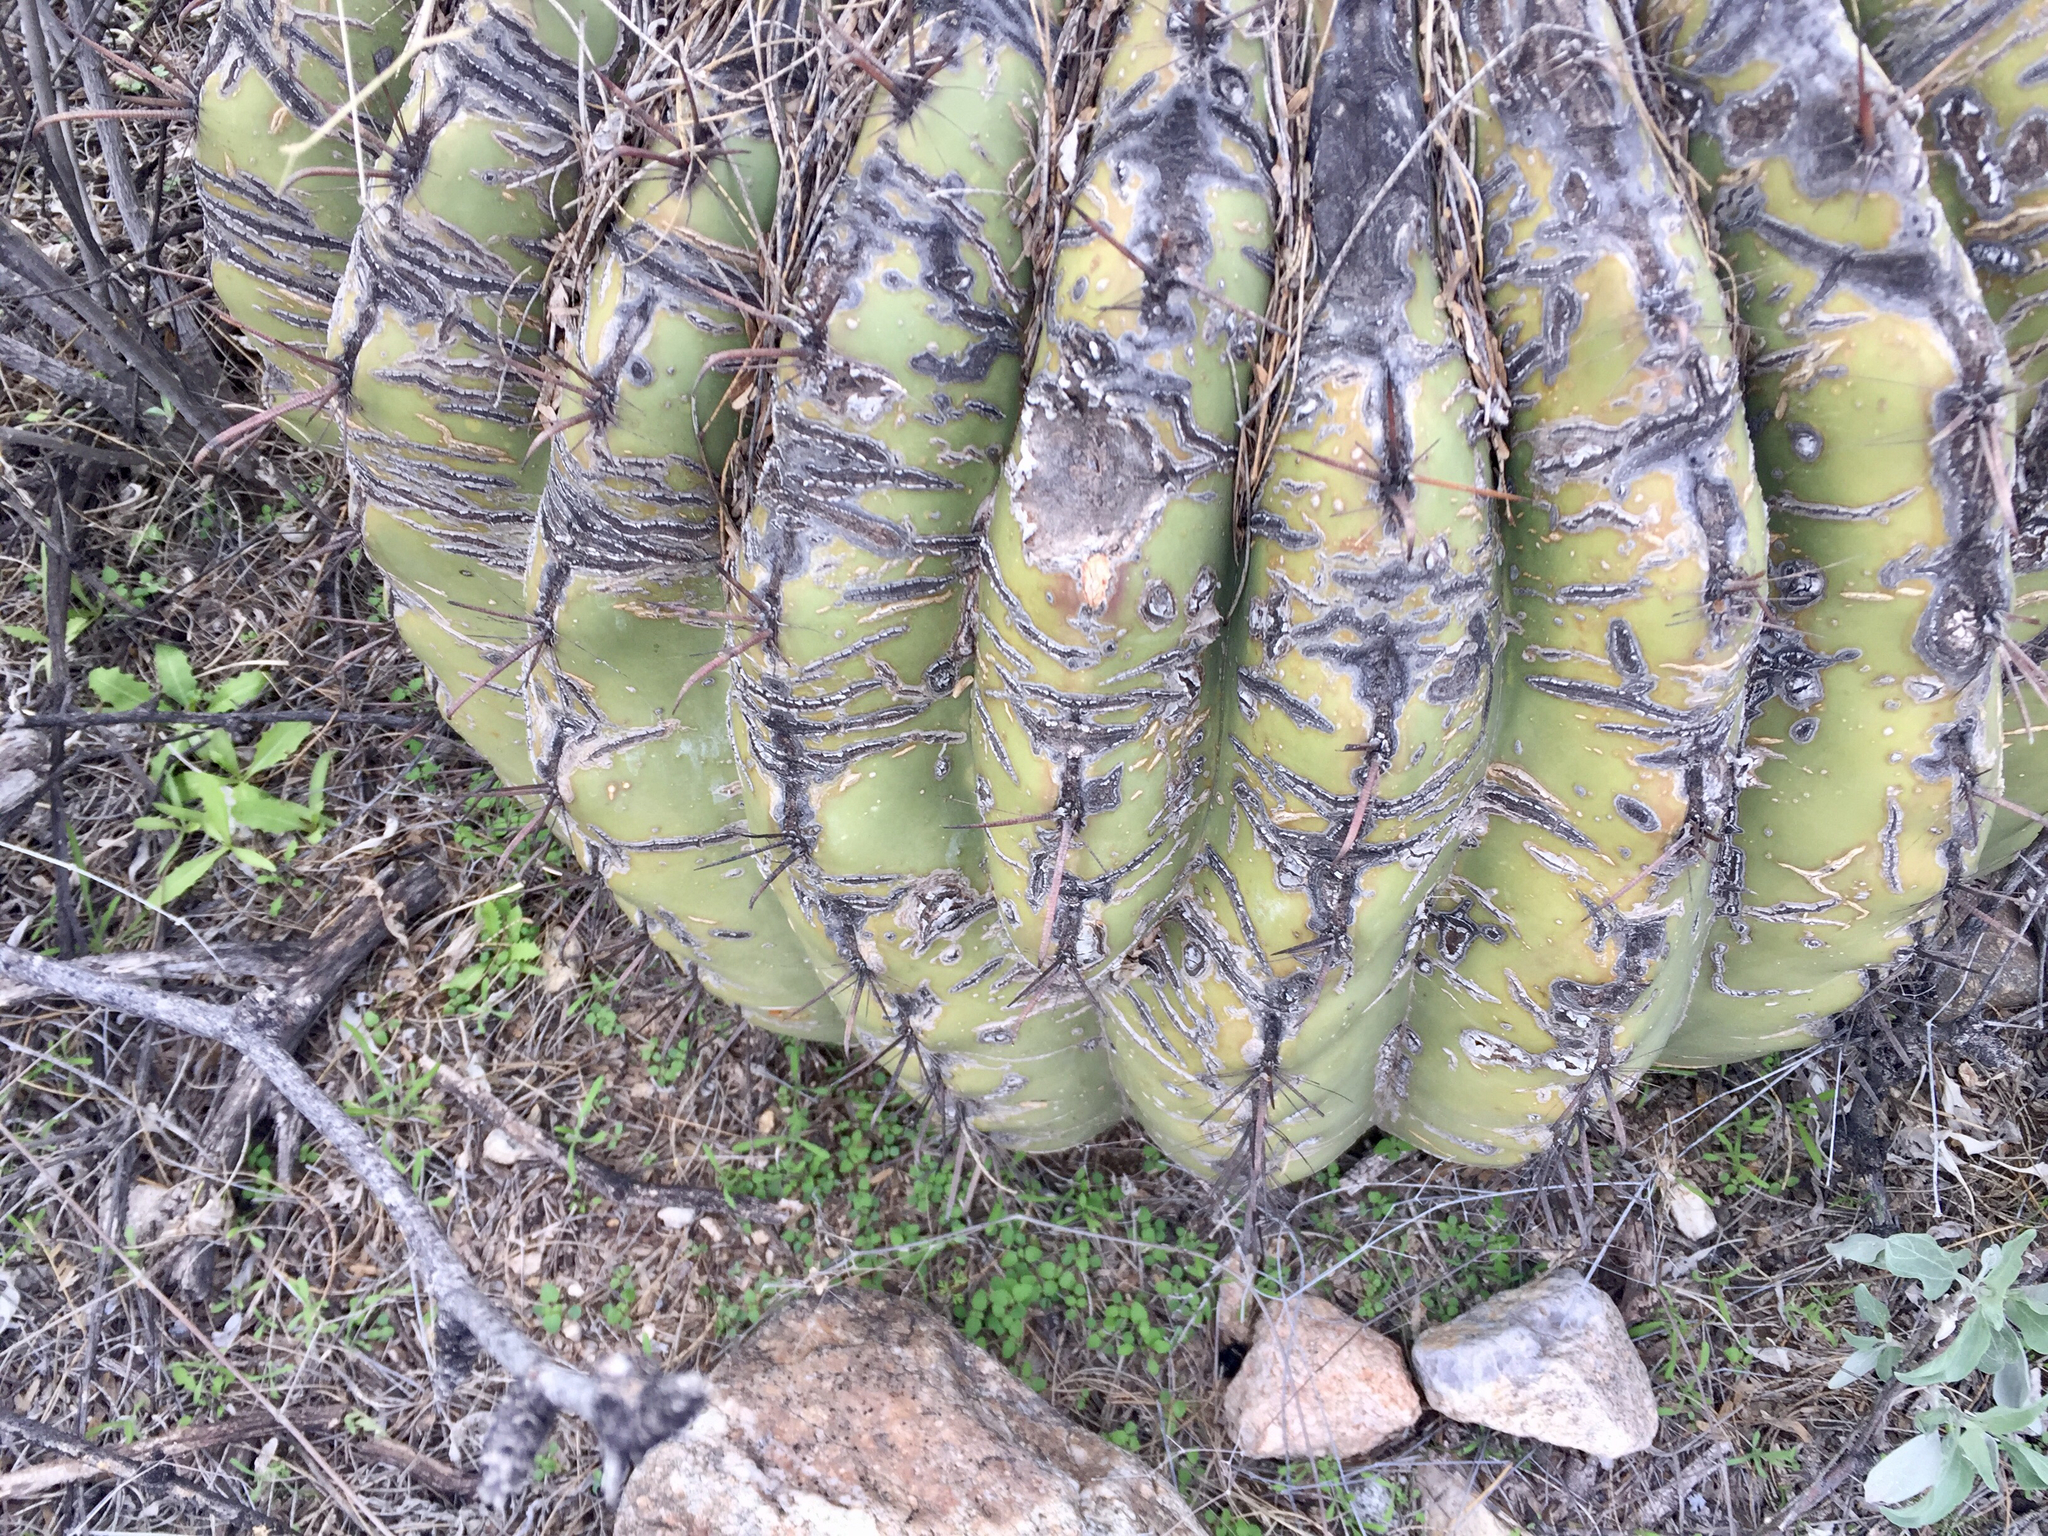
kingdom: Plantae
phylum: Tracheophyta
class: Magnoliopsida
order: Caryophyllales
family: Cactaceae
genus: Ferocactus
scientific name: Ferocactus wislizeni
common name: Candy barrel cactus
